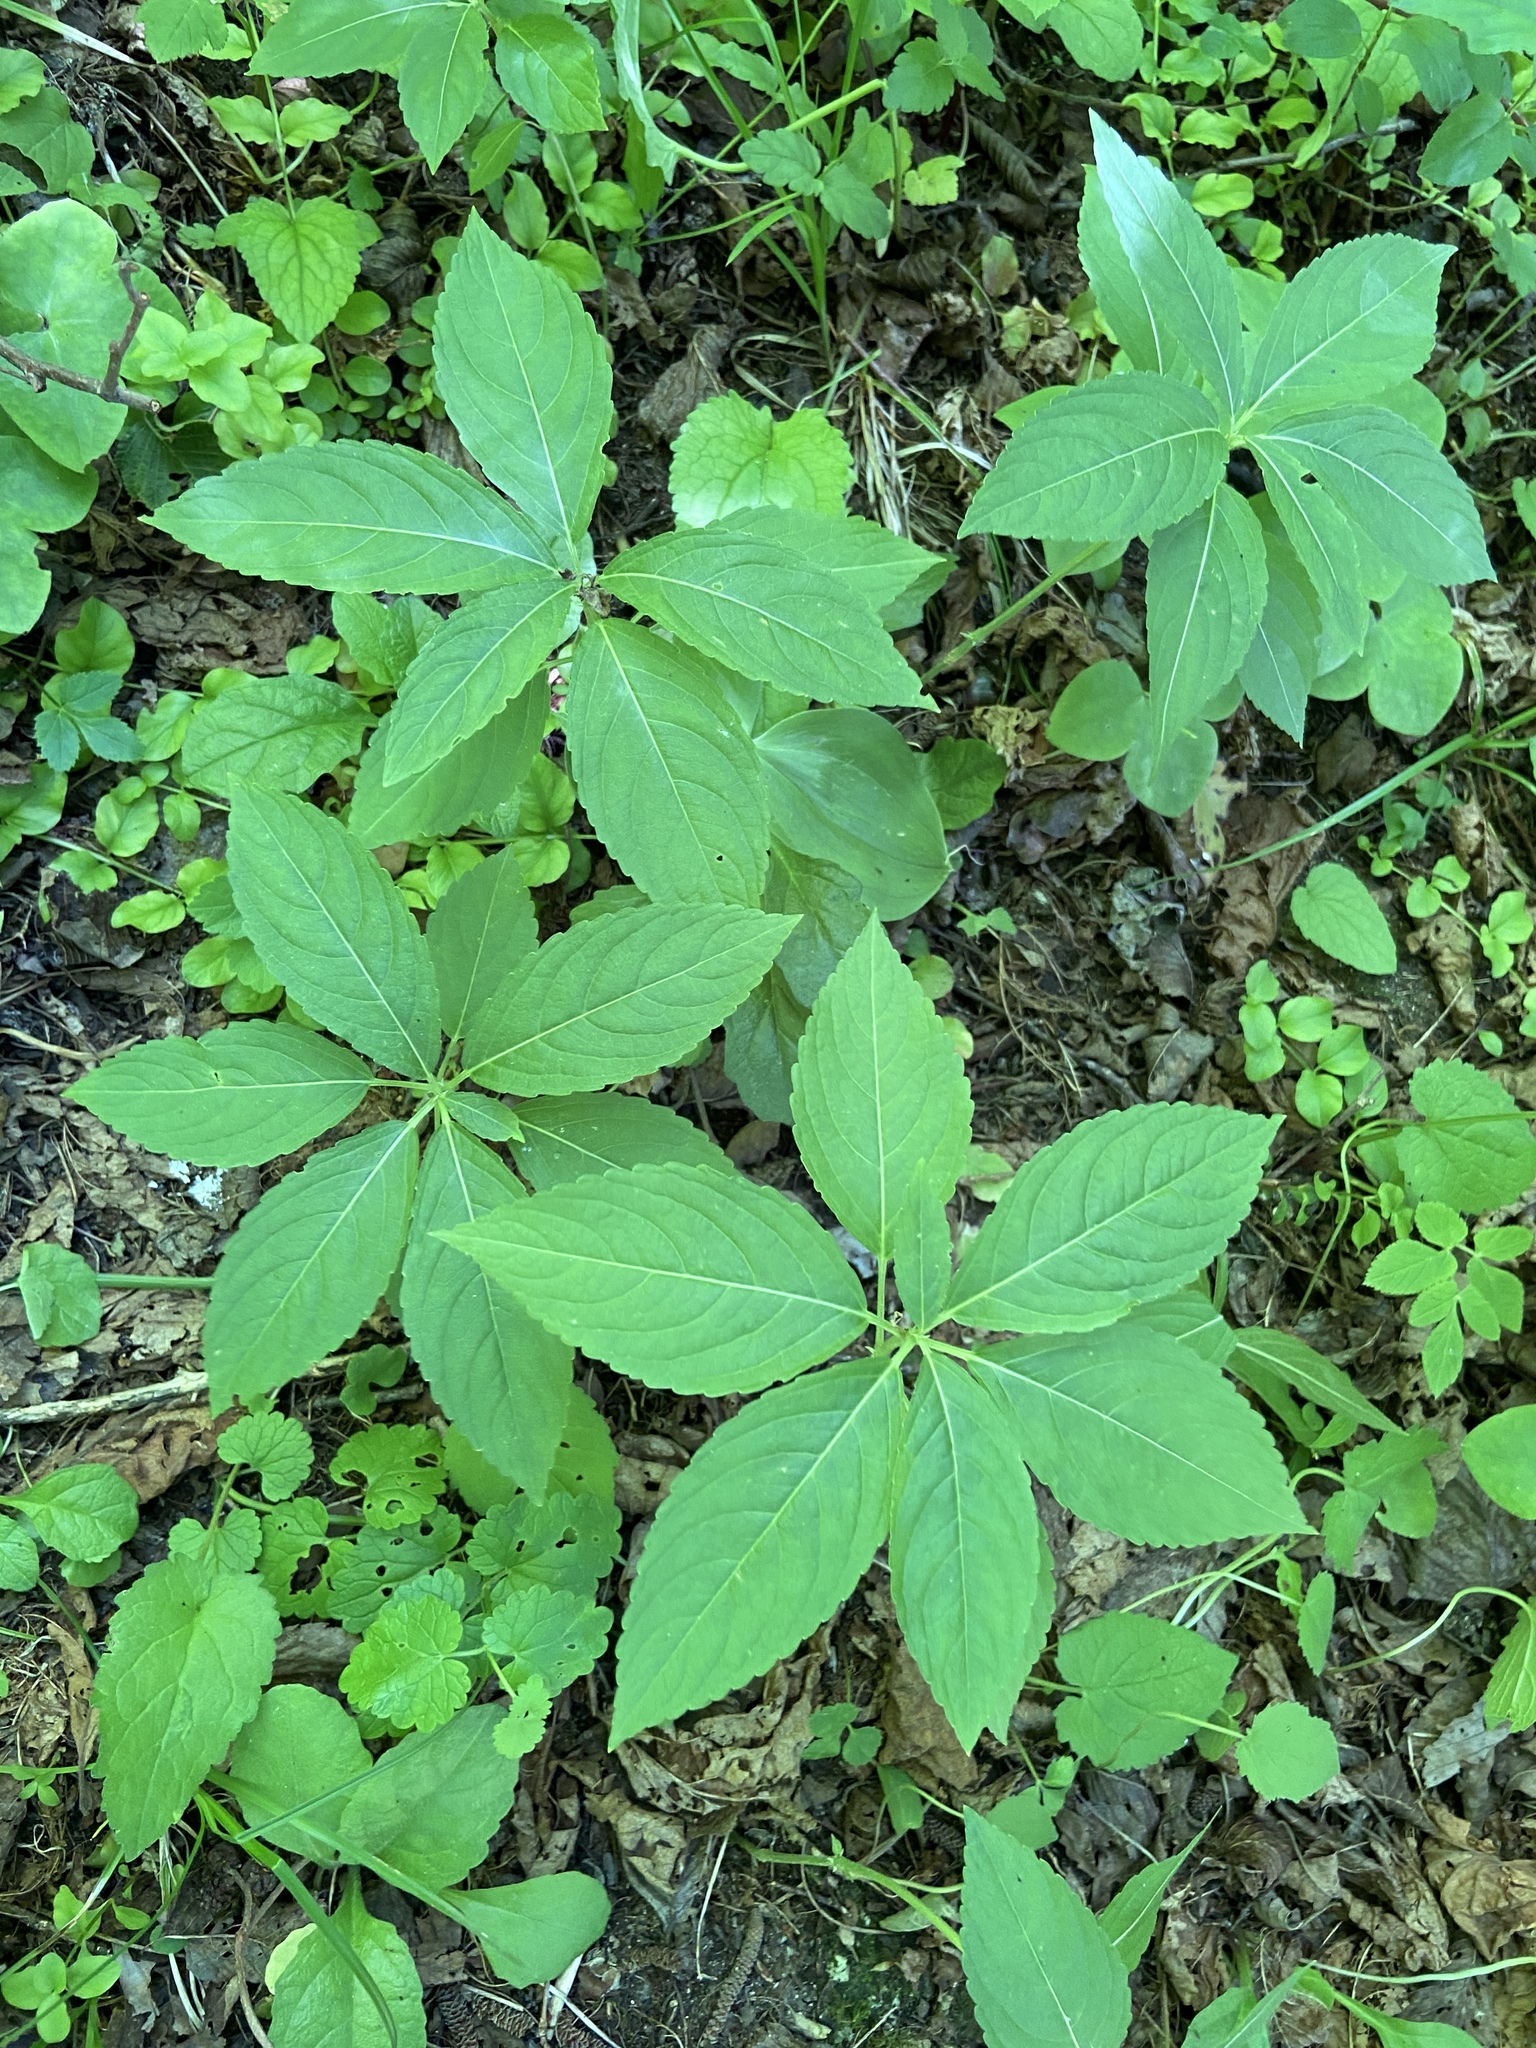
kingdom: Plantae
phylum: Tracheophyta
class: Magnoliopsida
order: Malpighiales
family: Euphorbiaceae
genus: Mercurialis
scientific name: Mercurialis perennis
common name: Dog mercury
